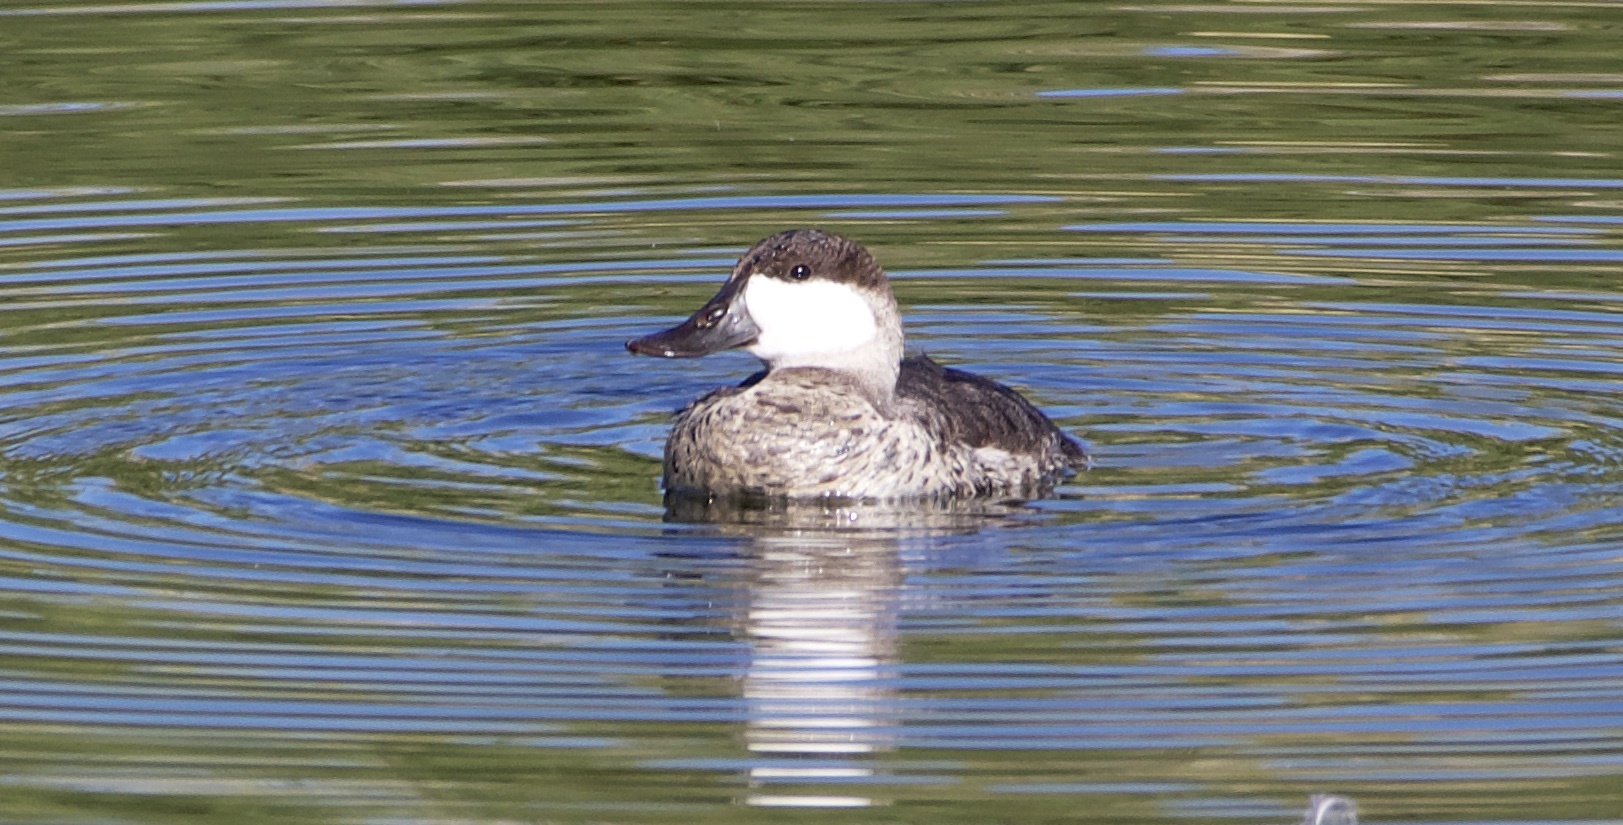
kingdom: Animalia
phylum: Chordata
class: Aves
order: Anseriformes
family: Anatidae
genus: Oxyura
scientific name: Oxyura jamaicensis
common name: Ruddy duck
